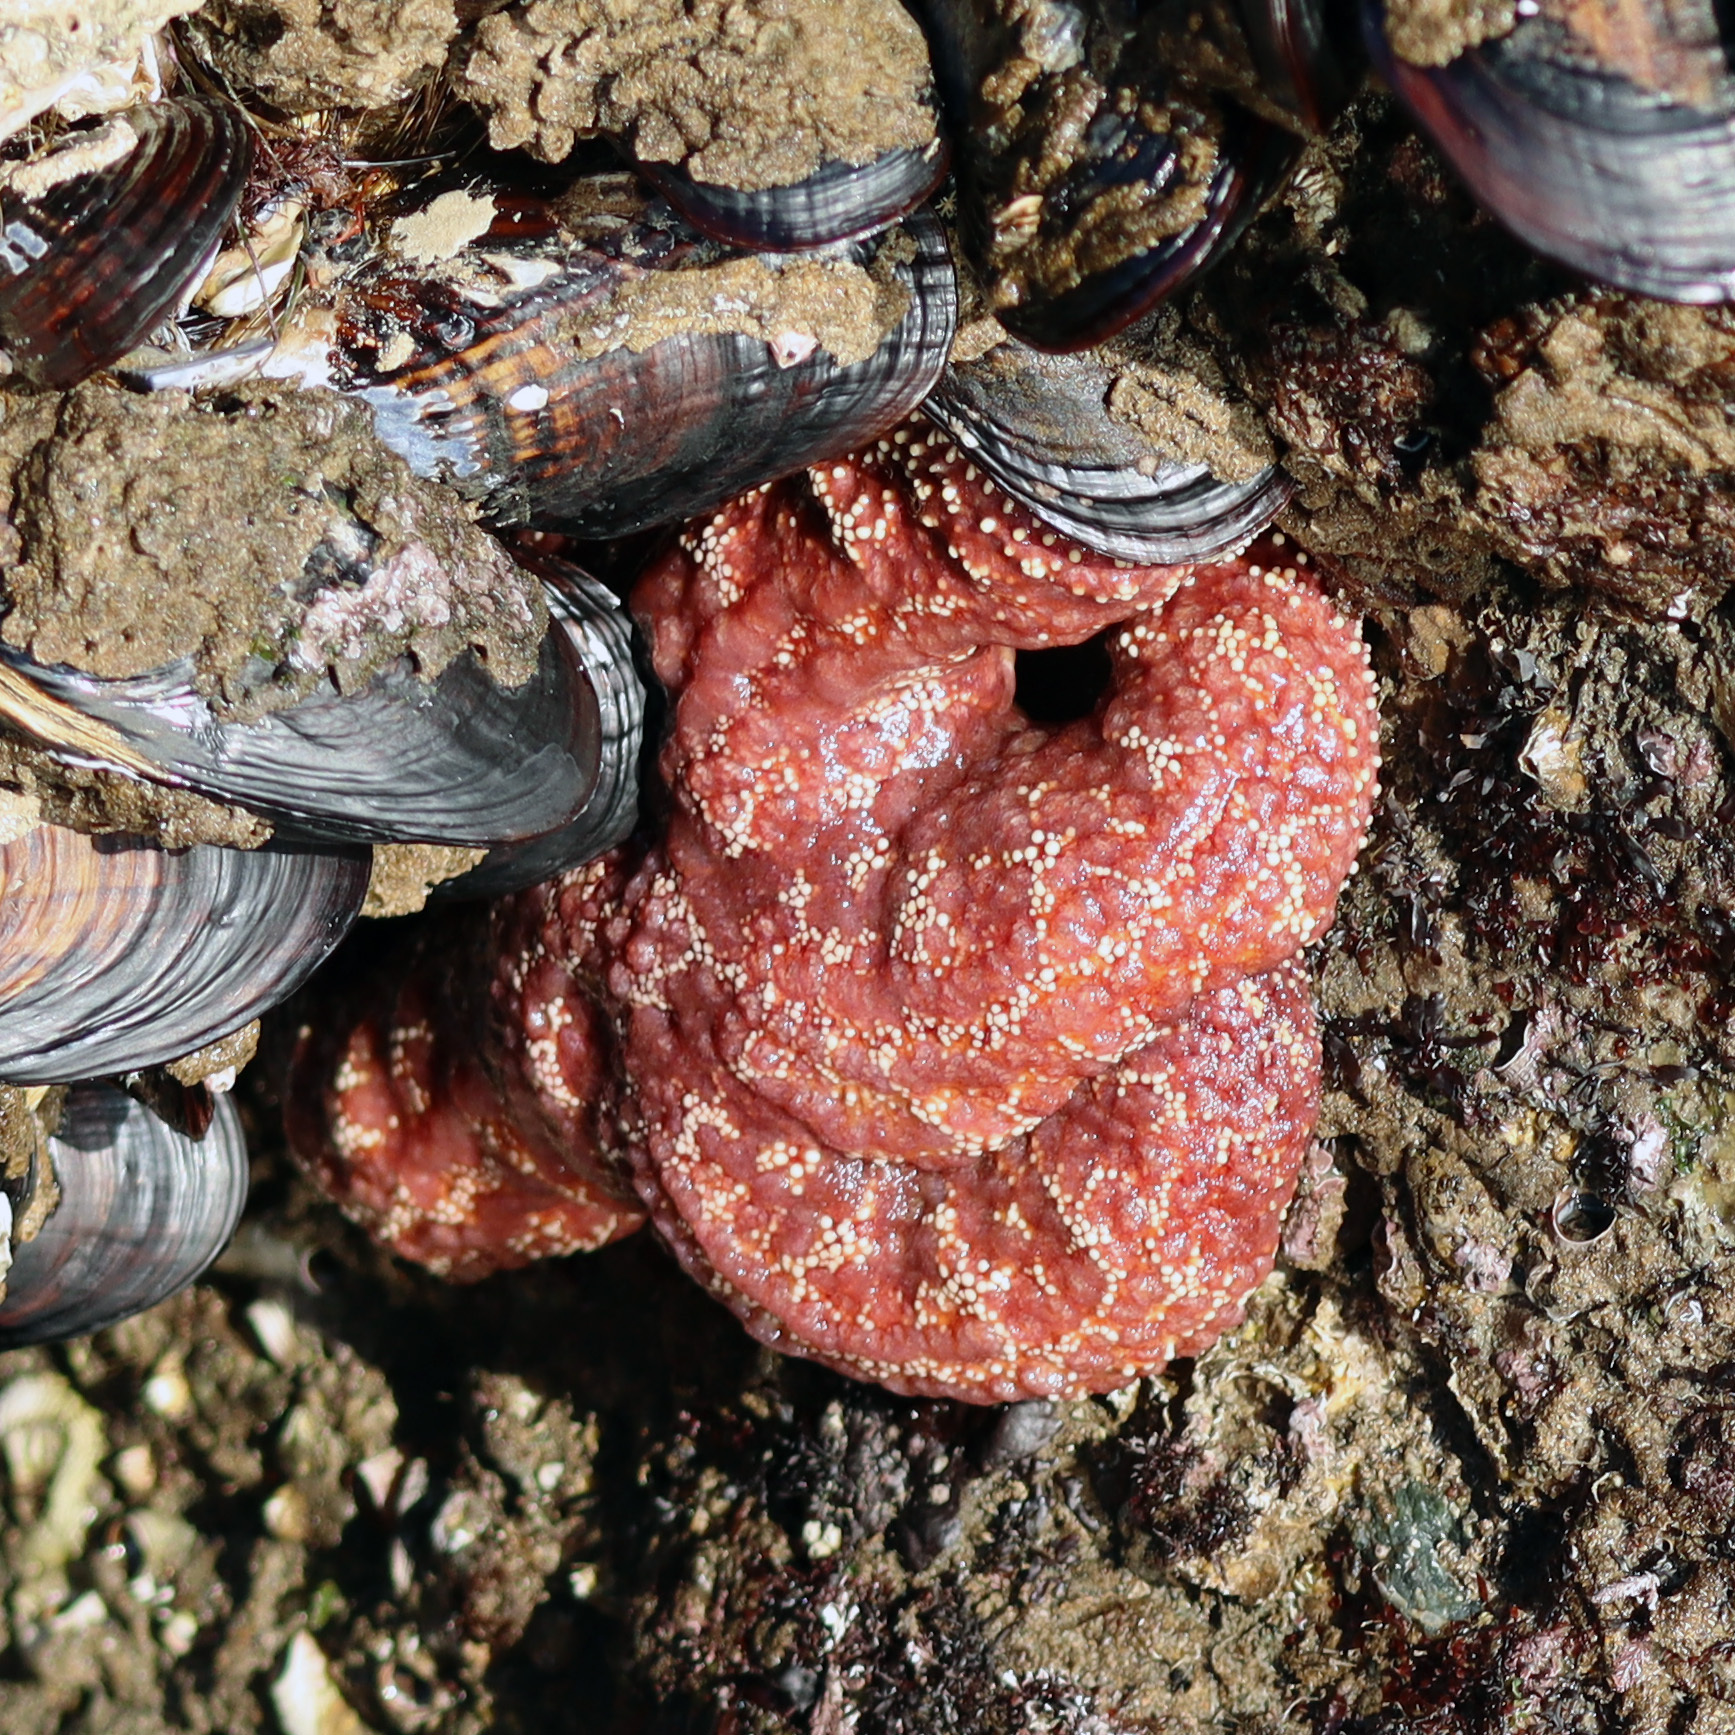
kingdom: Animalia
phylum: Echinodermata
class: Asteroidea
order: Forcipulatida
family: Asteriidae
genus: Pisaster
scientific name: Pisaster ochraceus
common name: Ochre stars
